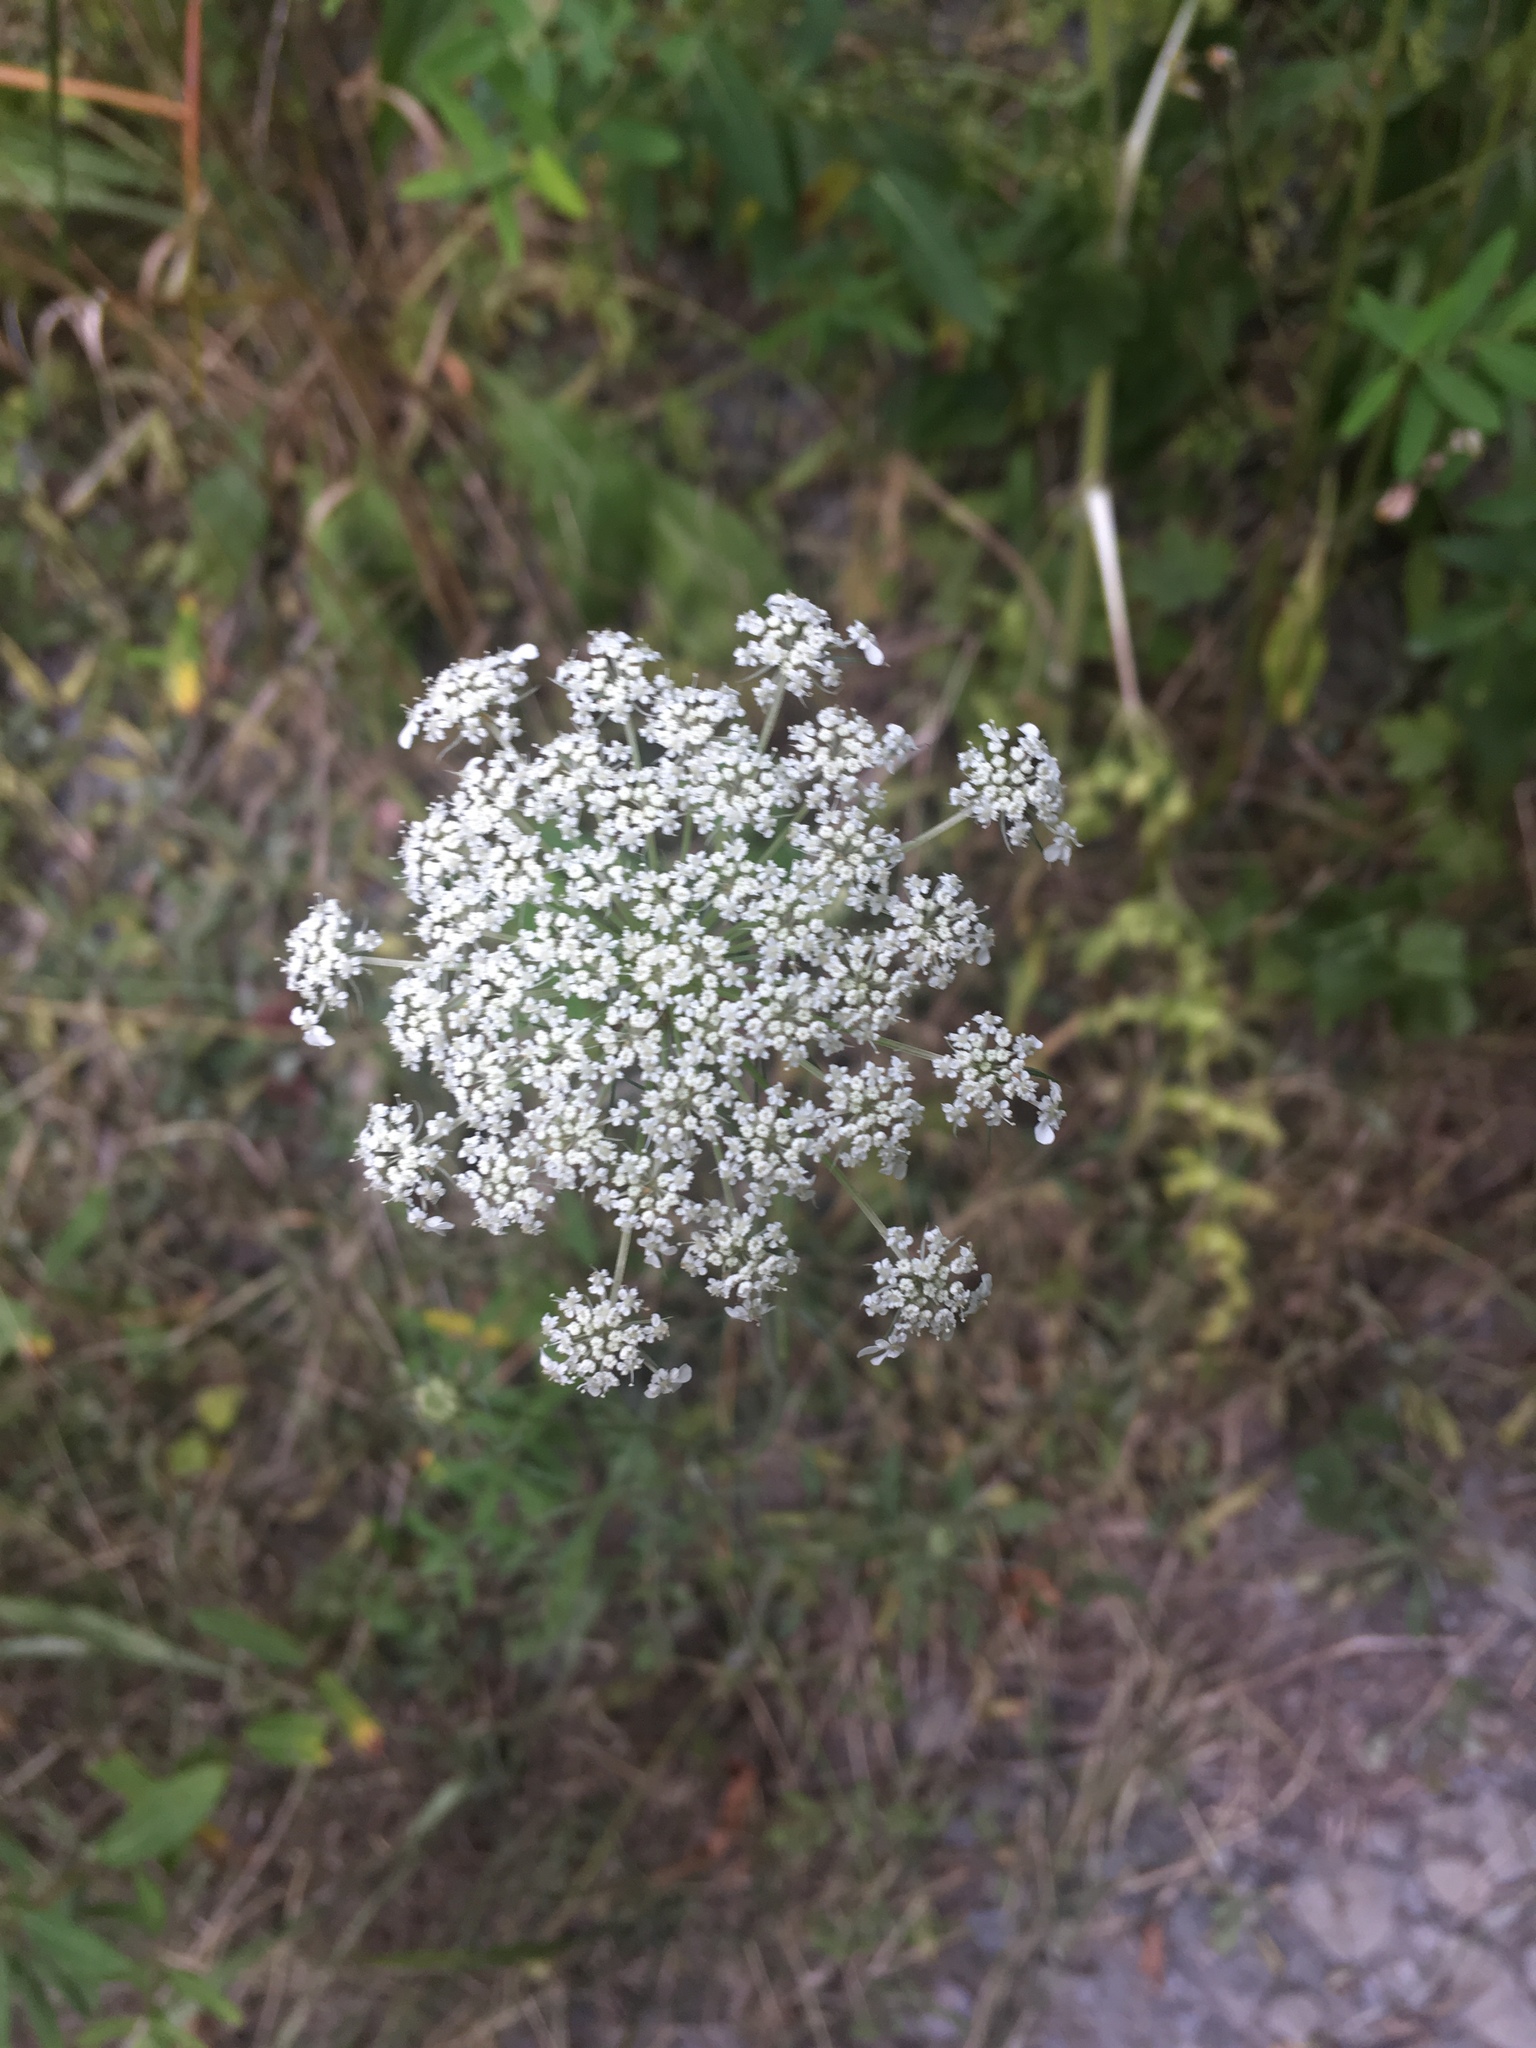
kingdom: Plantae
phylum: Tracheophyta
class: Magnoliopsida
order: Apiales
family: Apiaceae
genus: Daucus
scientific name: Daucus carota
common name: Wild carrot
